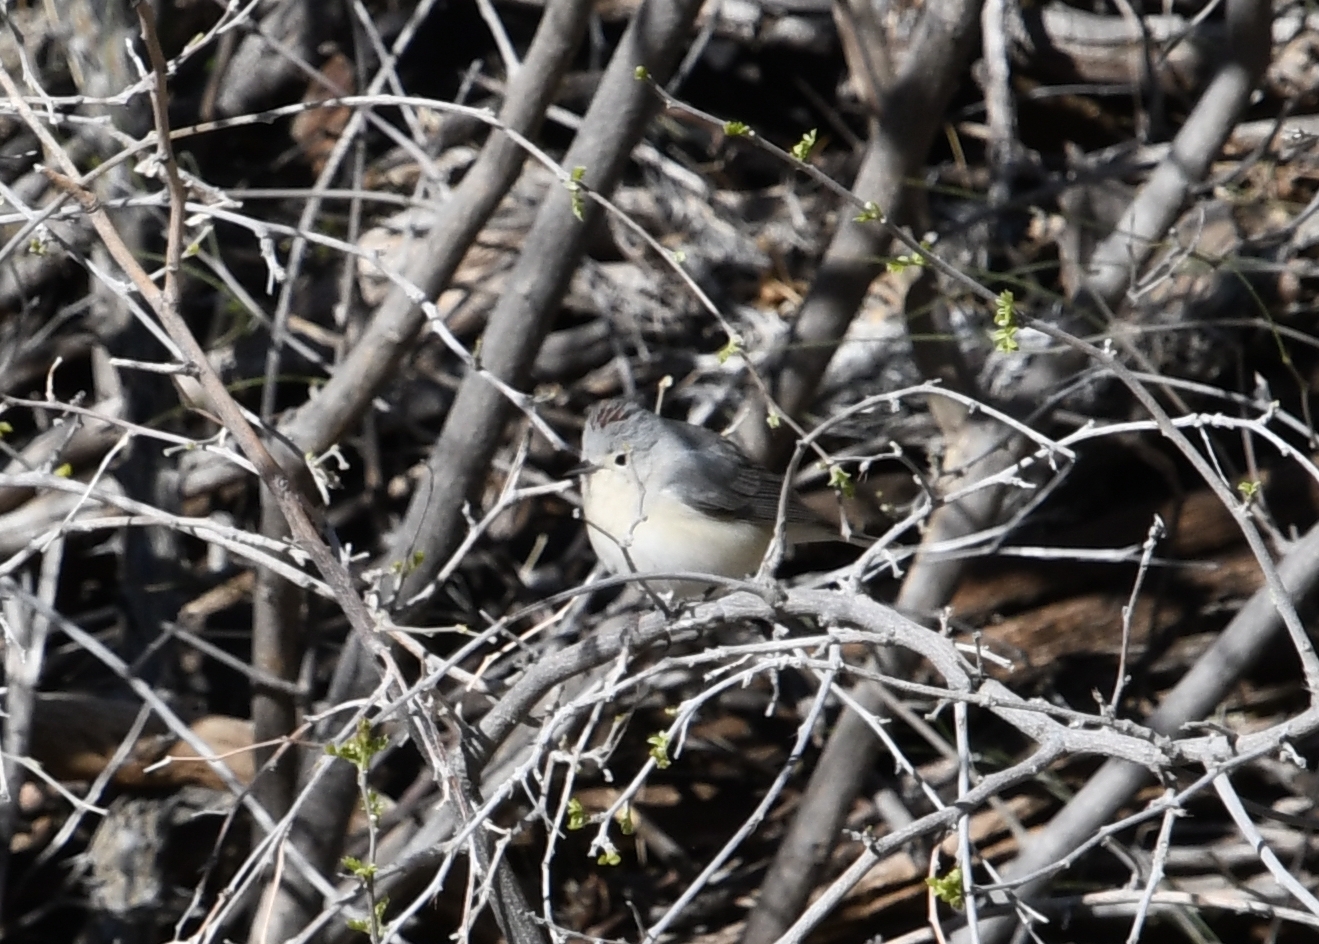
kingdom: Animalia
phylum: Chordata
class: Aves
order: Passeriformes
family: Parulidae
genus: Leiothlypis
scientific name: Leiothlypis luciae
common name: Lucy's warbler
